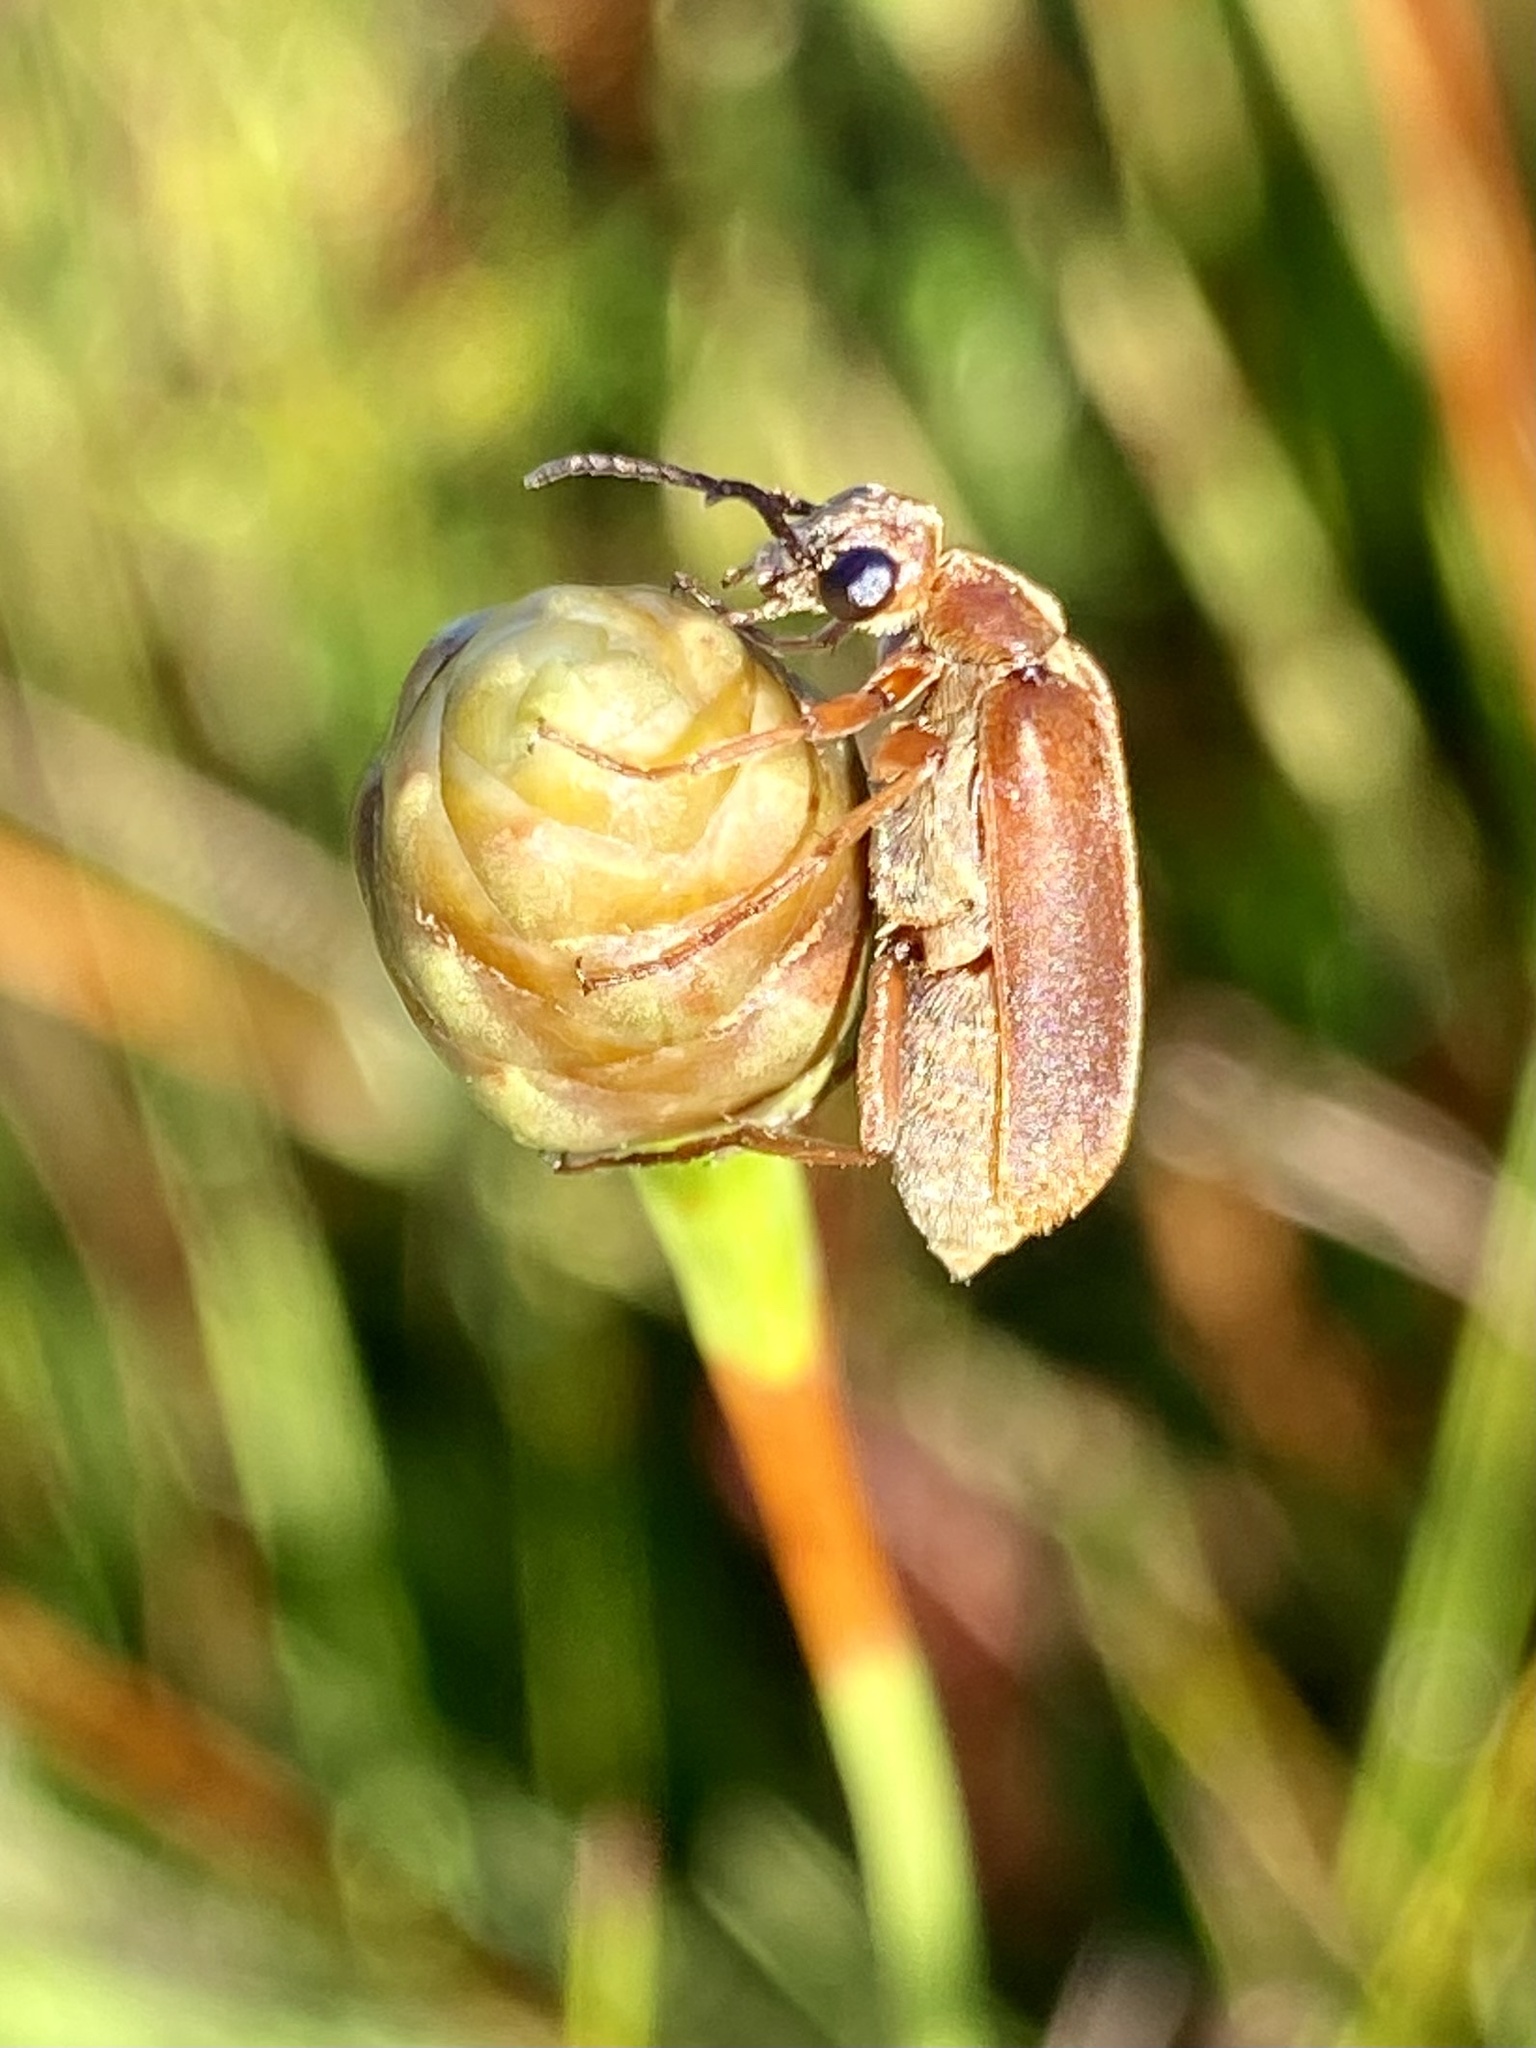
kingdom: Animalia
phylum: Arthropoda
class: Insecta
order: Coleoptera
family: Meloidae
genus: Epicauta
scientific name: Epicauta batesii
